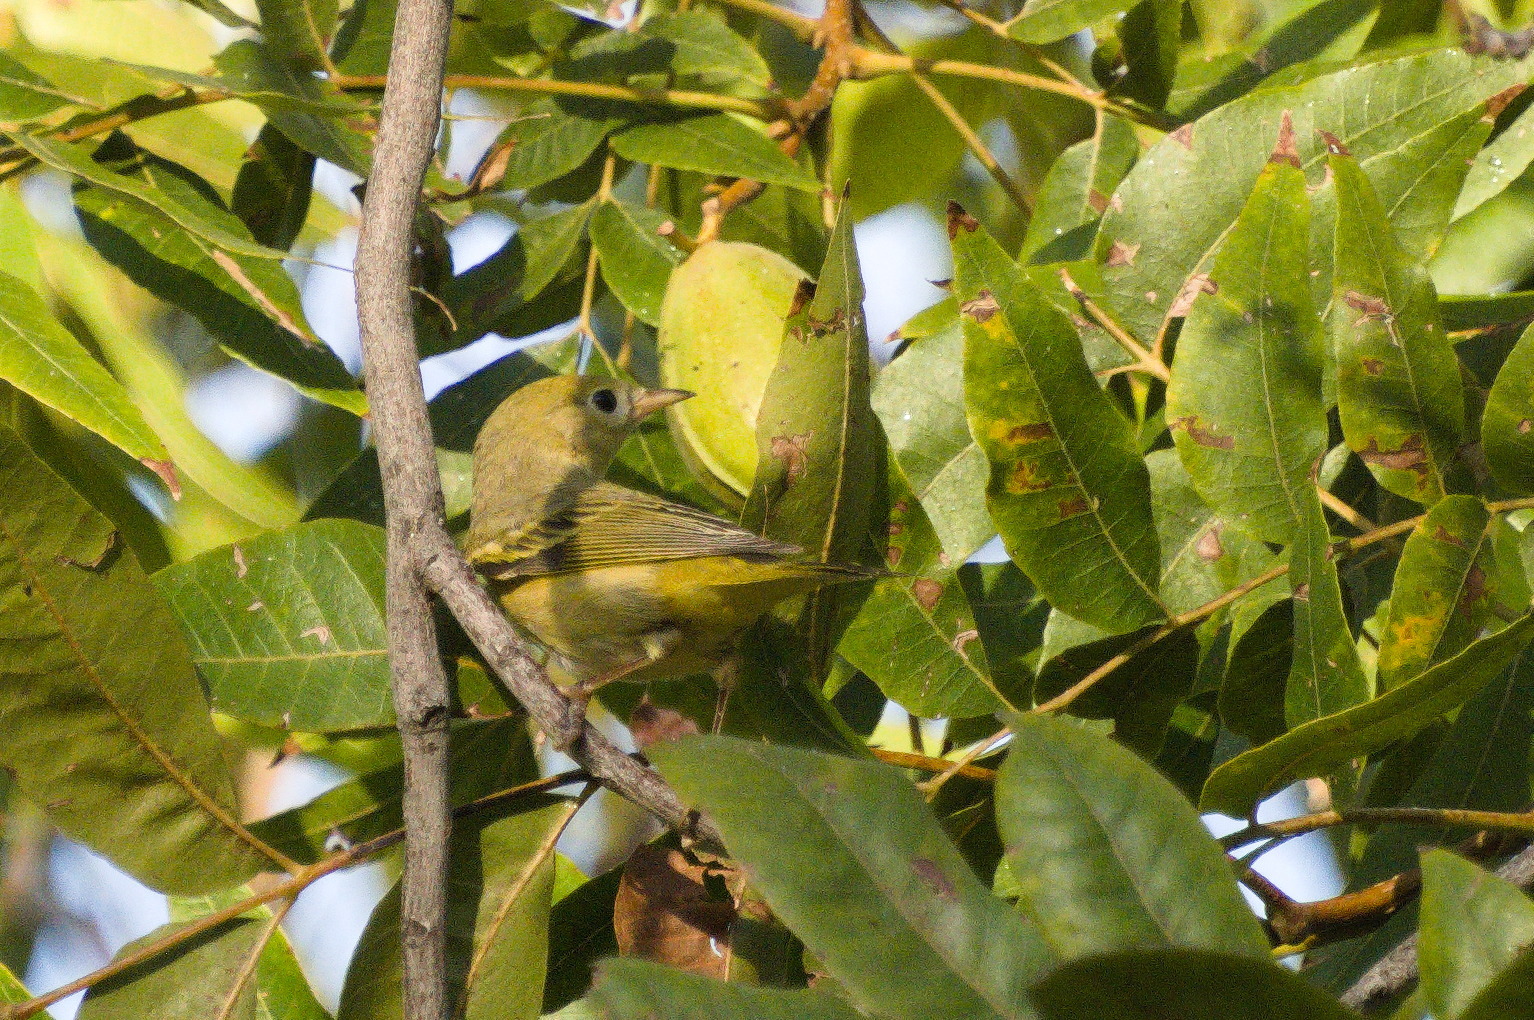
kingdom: Animalia
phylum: Chordata
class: Aves
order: Passeriformes
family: Parulidae
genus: Setophaga
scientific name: Setophaga petechia
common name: Yellow warbler
